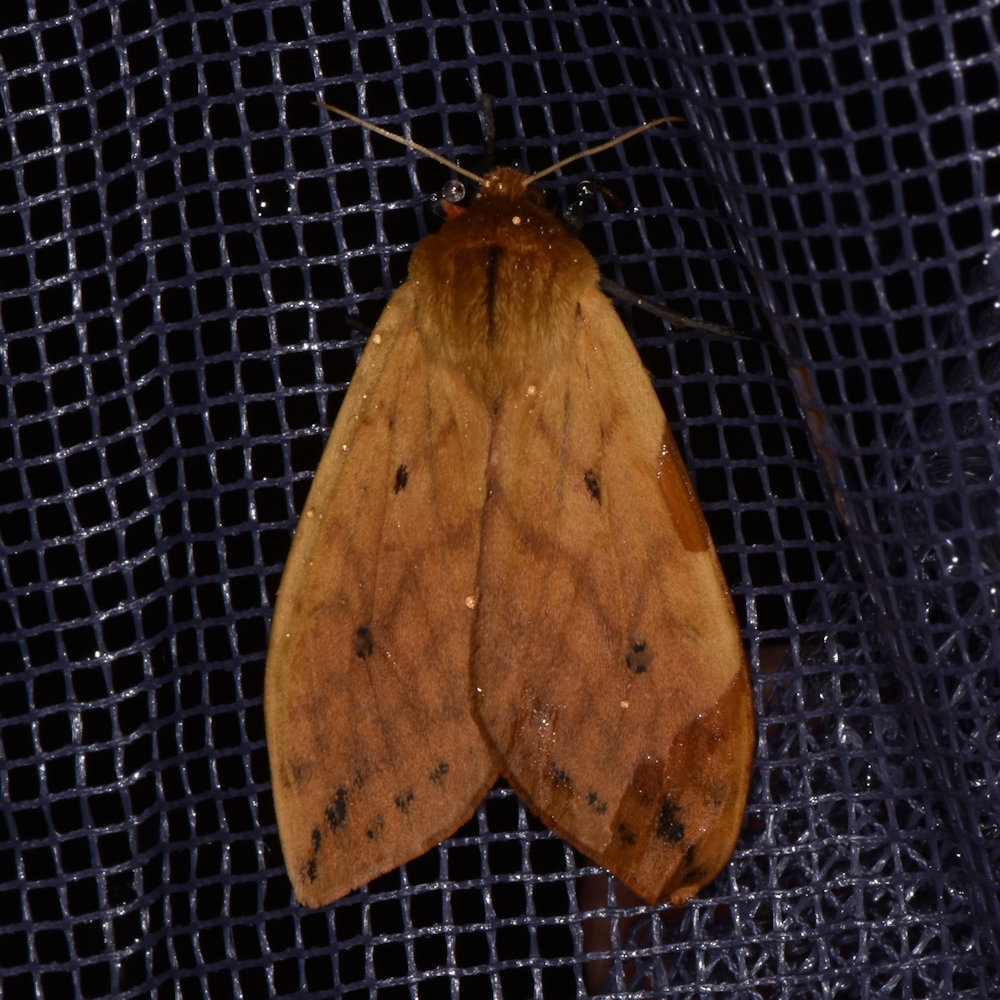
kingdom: Animalia
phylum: Arthropoda
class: Insecta
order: Lepidoptera
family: Erebidae
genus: Pyrrharctia
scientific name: Pyrrharctia isabella
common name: Isabella tiger moth
